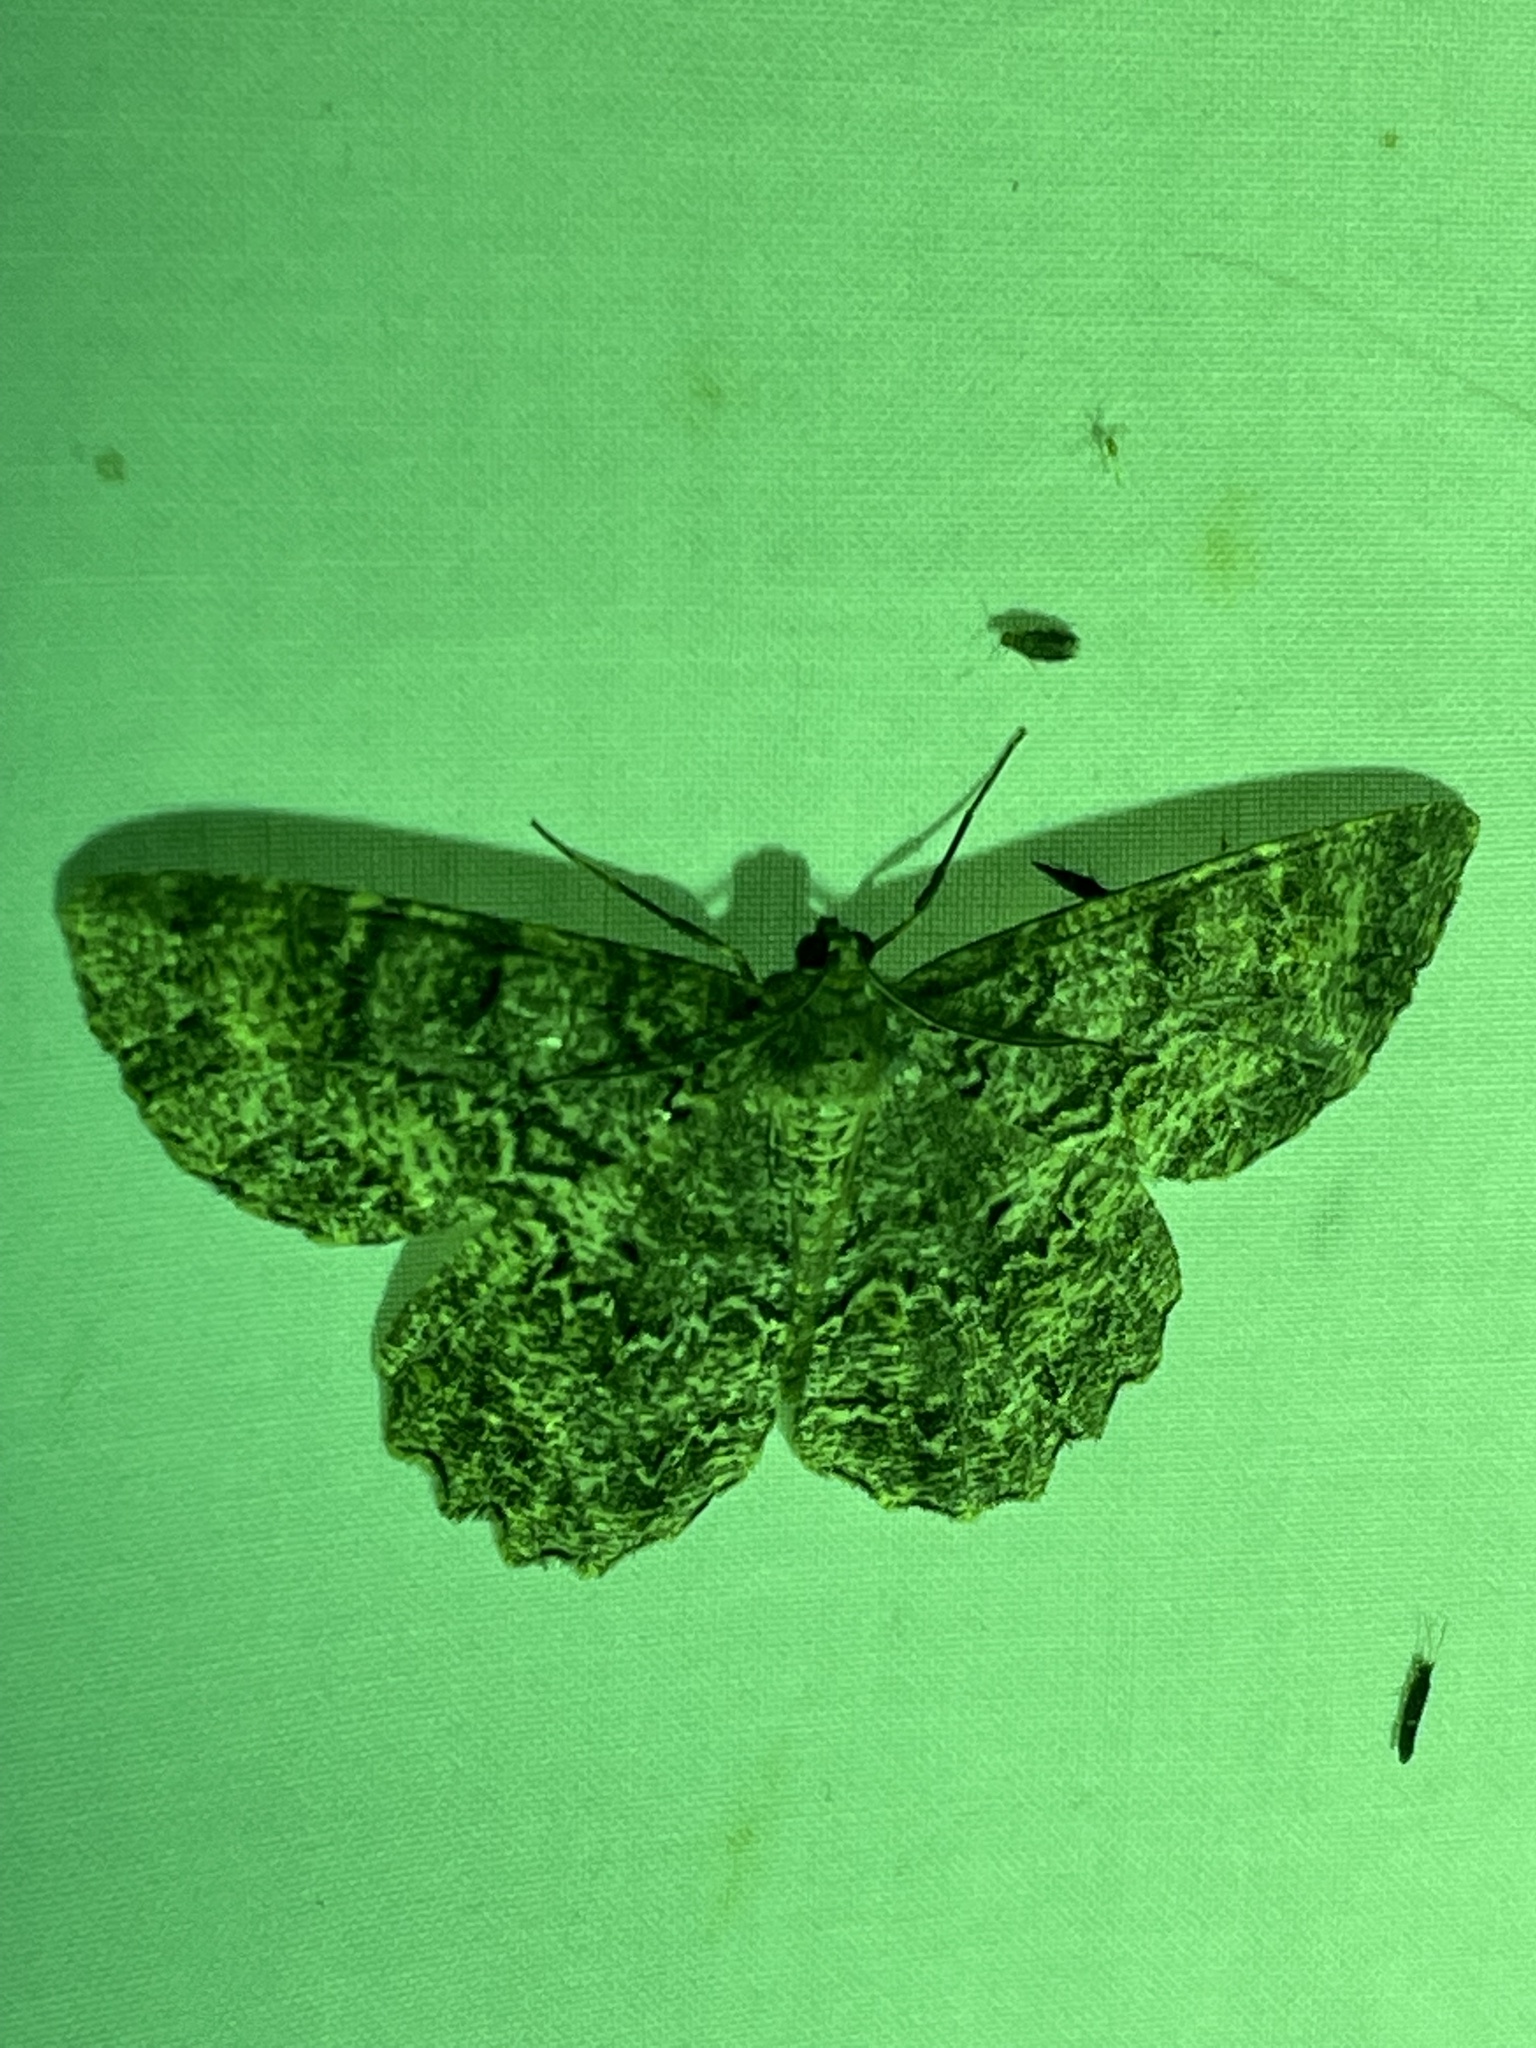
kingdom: Animalia
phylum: Arthropoda
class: Insecta
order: Lepidoptera
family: Geometridae
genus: Epimecis
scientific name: Epimecis hortaria
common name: Tulip-tree beauty
